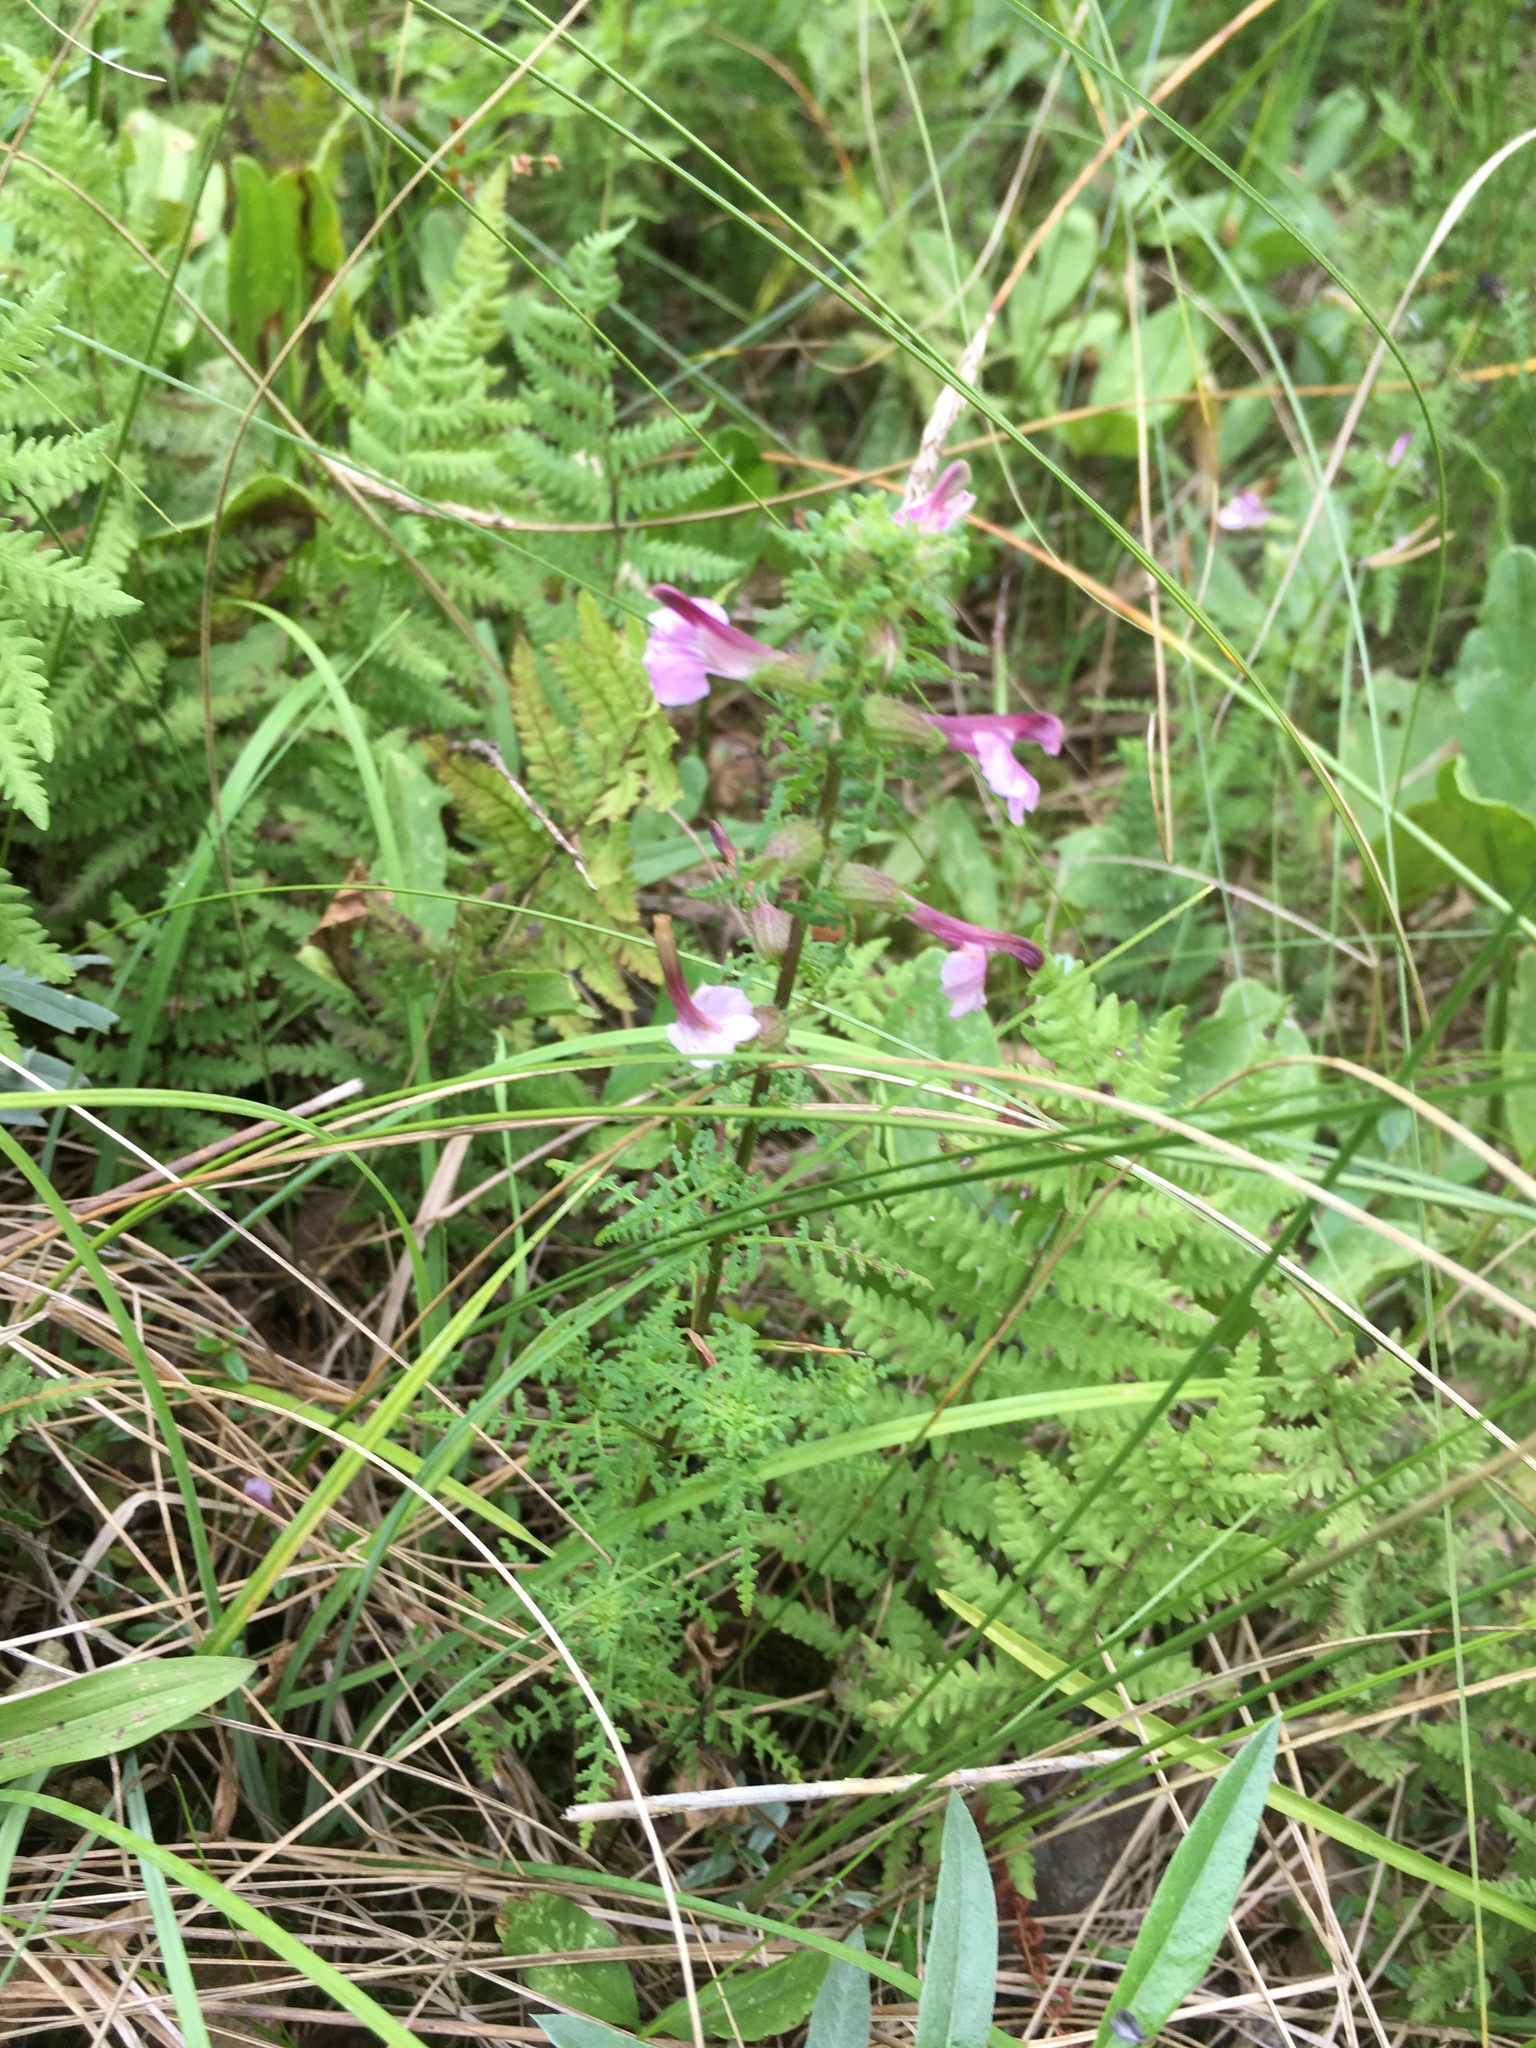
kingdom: Plantae
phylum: Tracheophyta
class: Magnoliopsida
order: Lamiales
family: Orobanchaceae
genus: Pedicularis
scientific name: Pedicularis palustris
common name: Marsh lousewort
